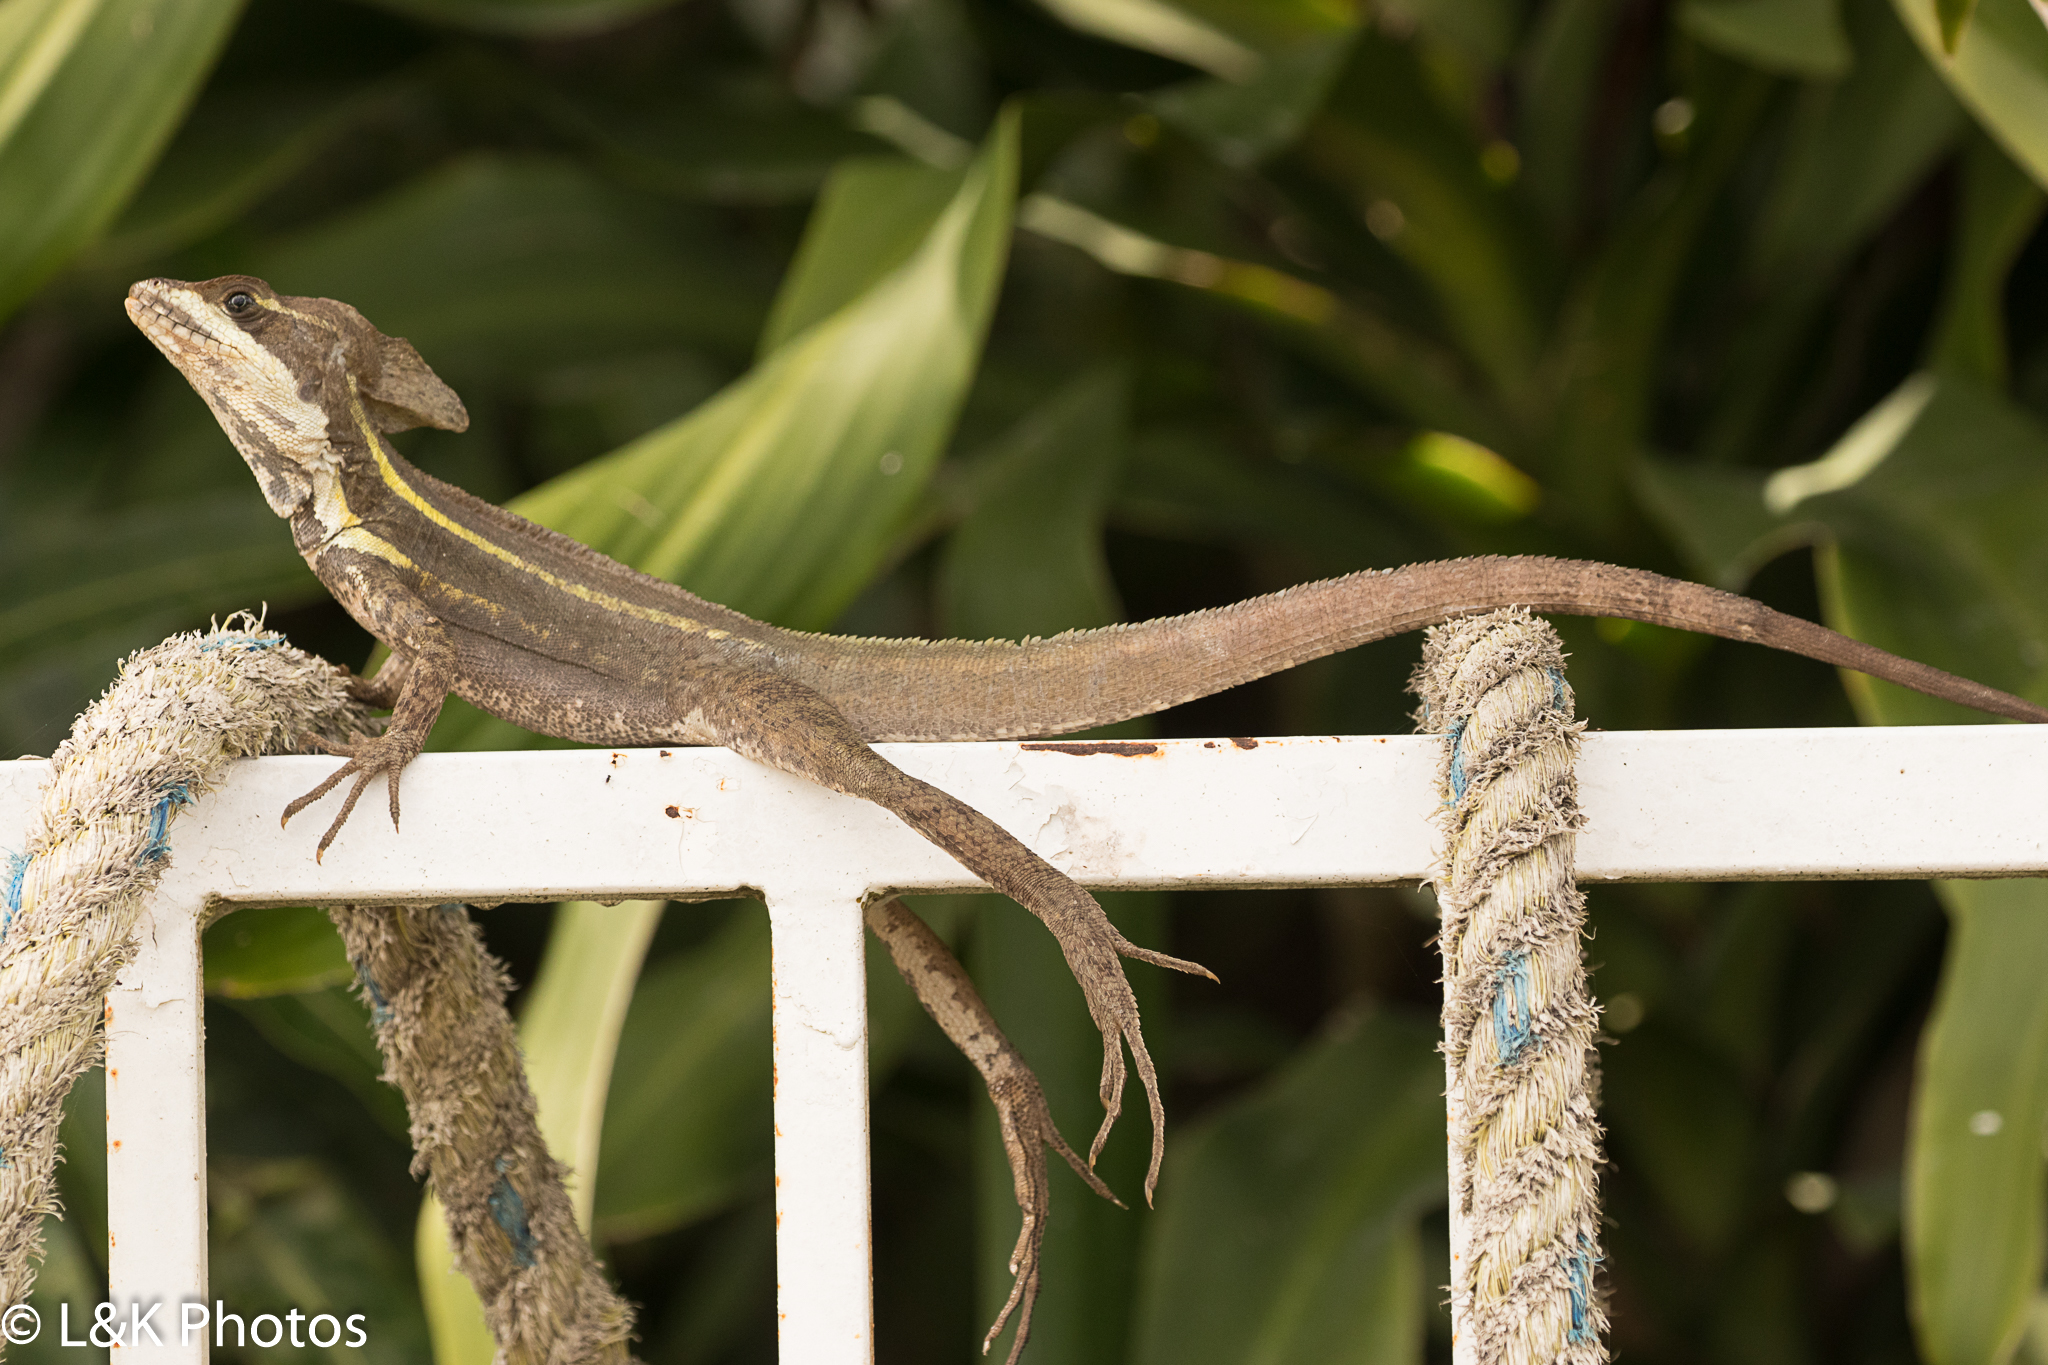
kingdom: Animalia
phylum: Chordata
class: Squamata
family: Corytophanidae
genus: Basiliscus
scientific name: Basiliscus vittatus
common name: Brown basilisk
